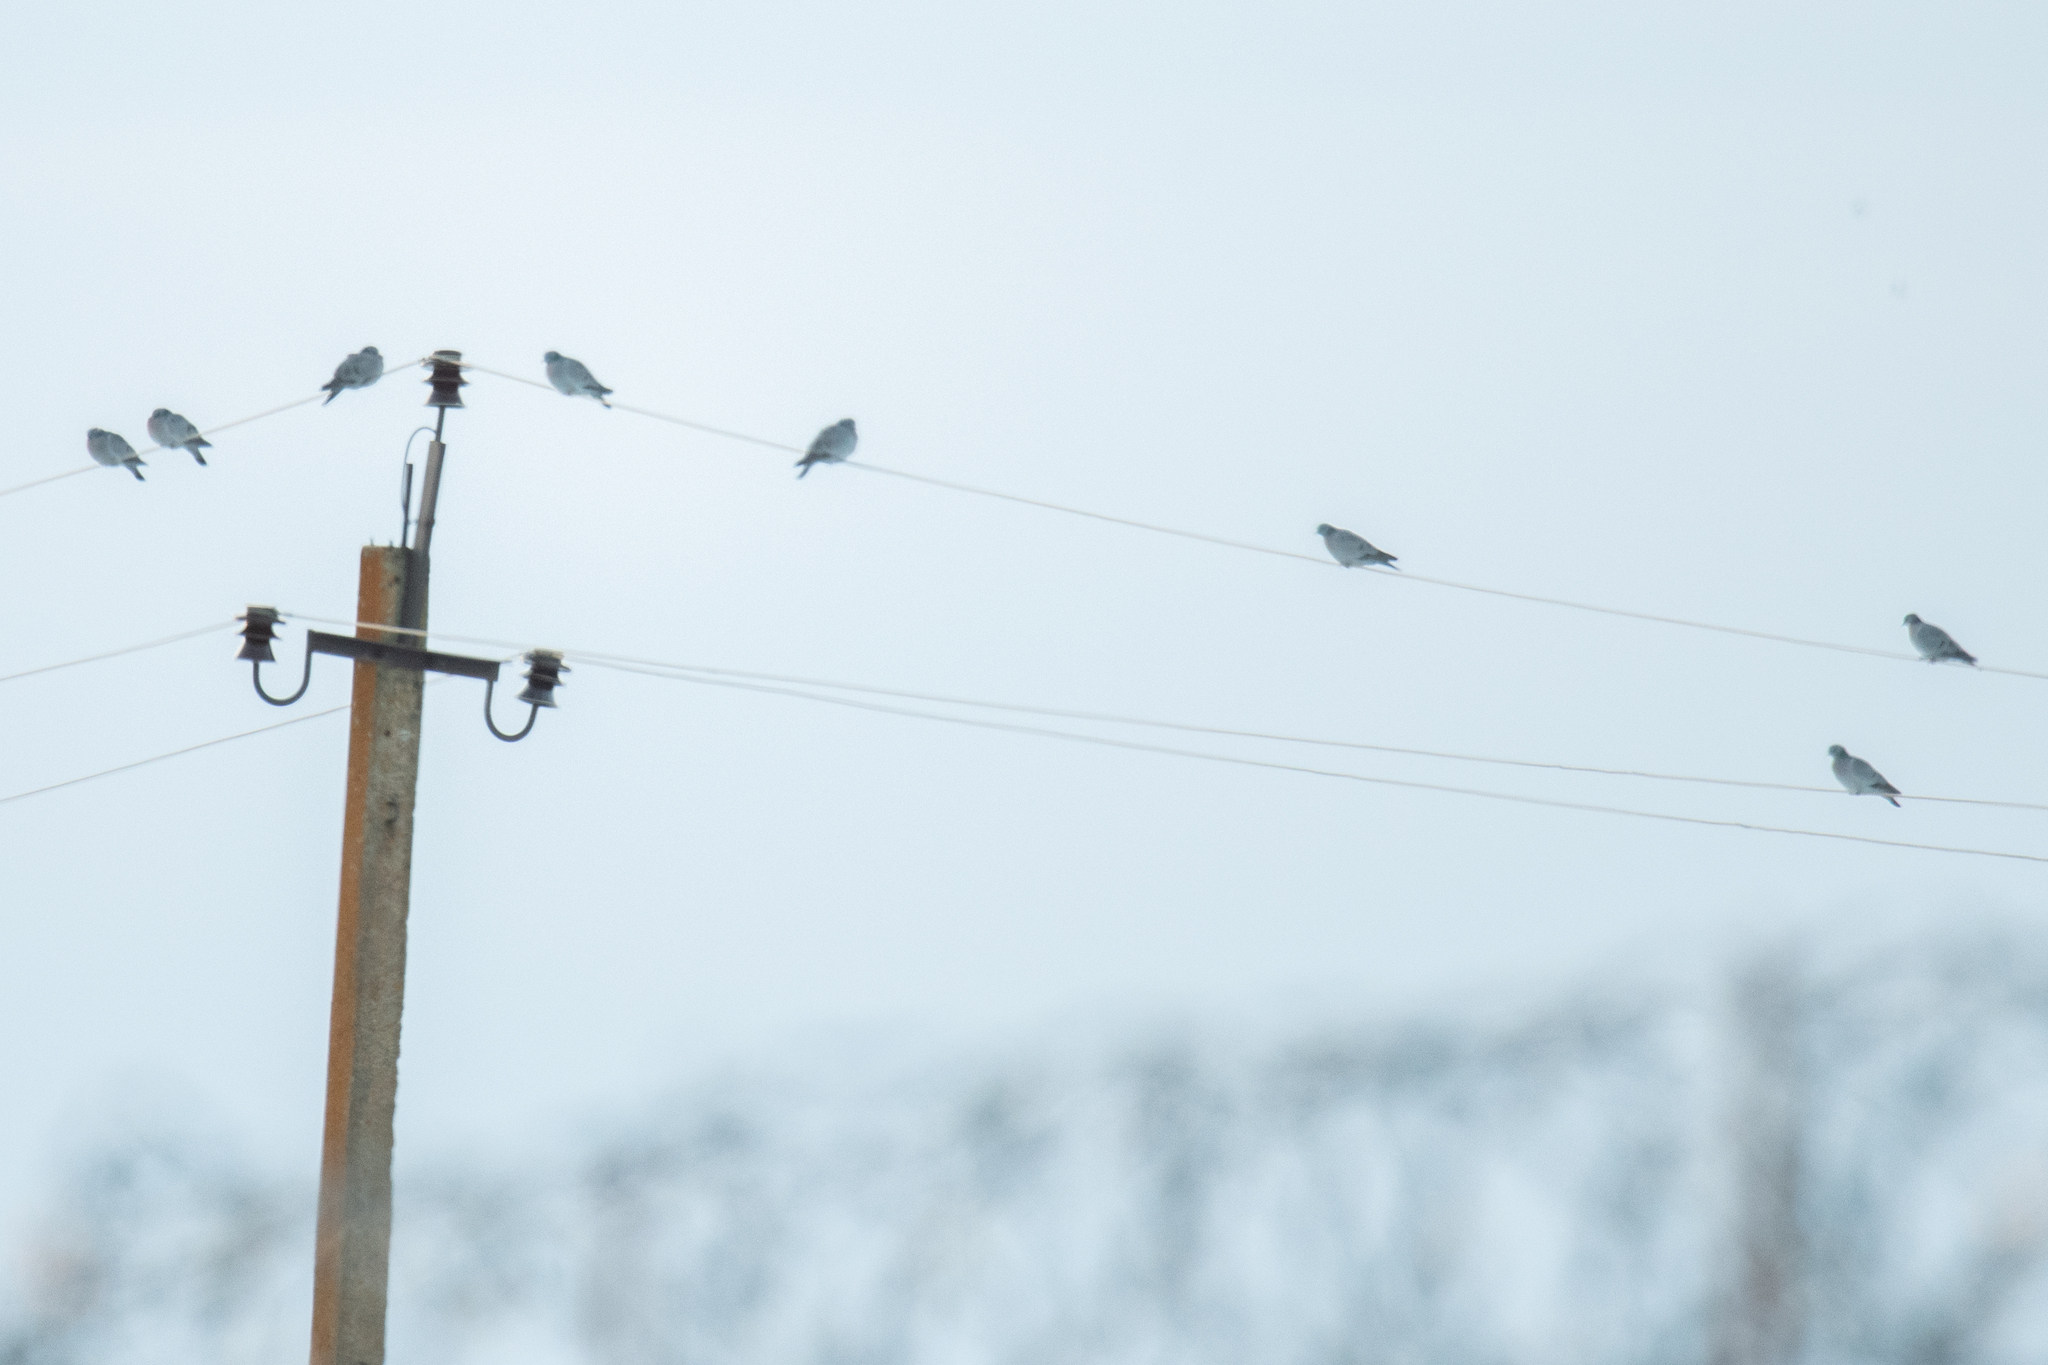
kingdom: Animalia
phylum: Chordata
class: Aves
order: Columbiformes
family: Columbidae
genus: Columba
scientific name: Columba oenas
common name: Stock dove
